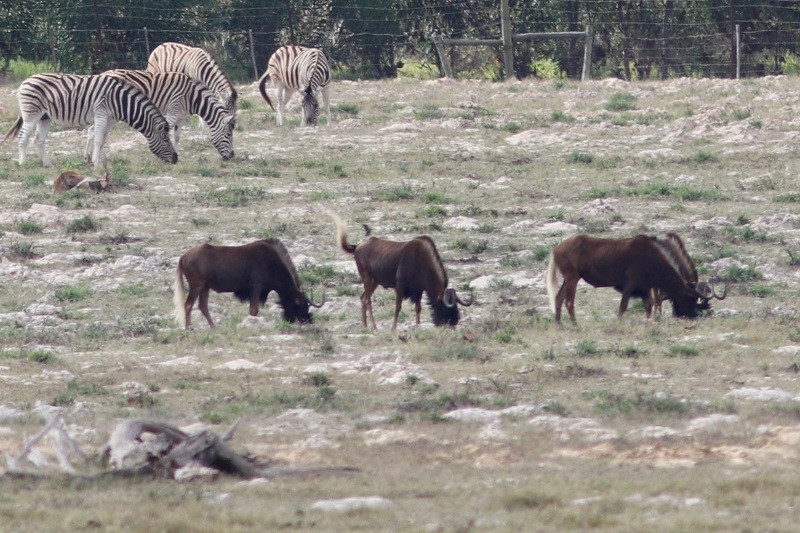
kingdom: Animalia
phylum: Chordata
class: Mammalia
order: Artiodactyla
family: Bovidae
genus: Connochaetes
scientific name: Connochaetes gnou
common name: Black wildebeest
